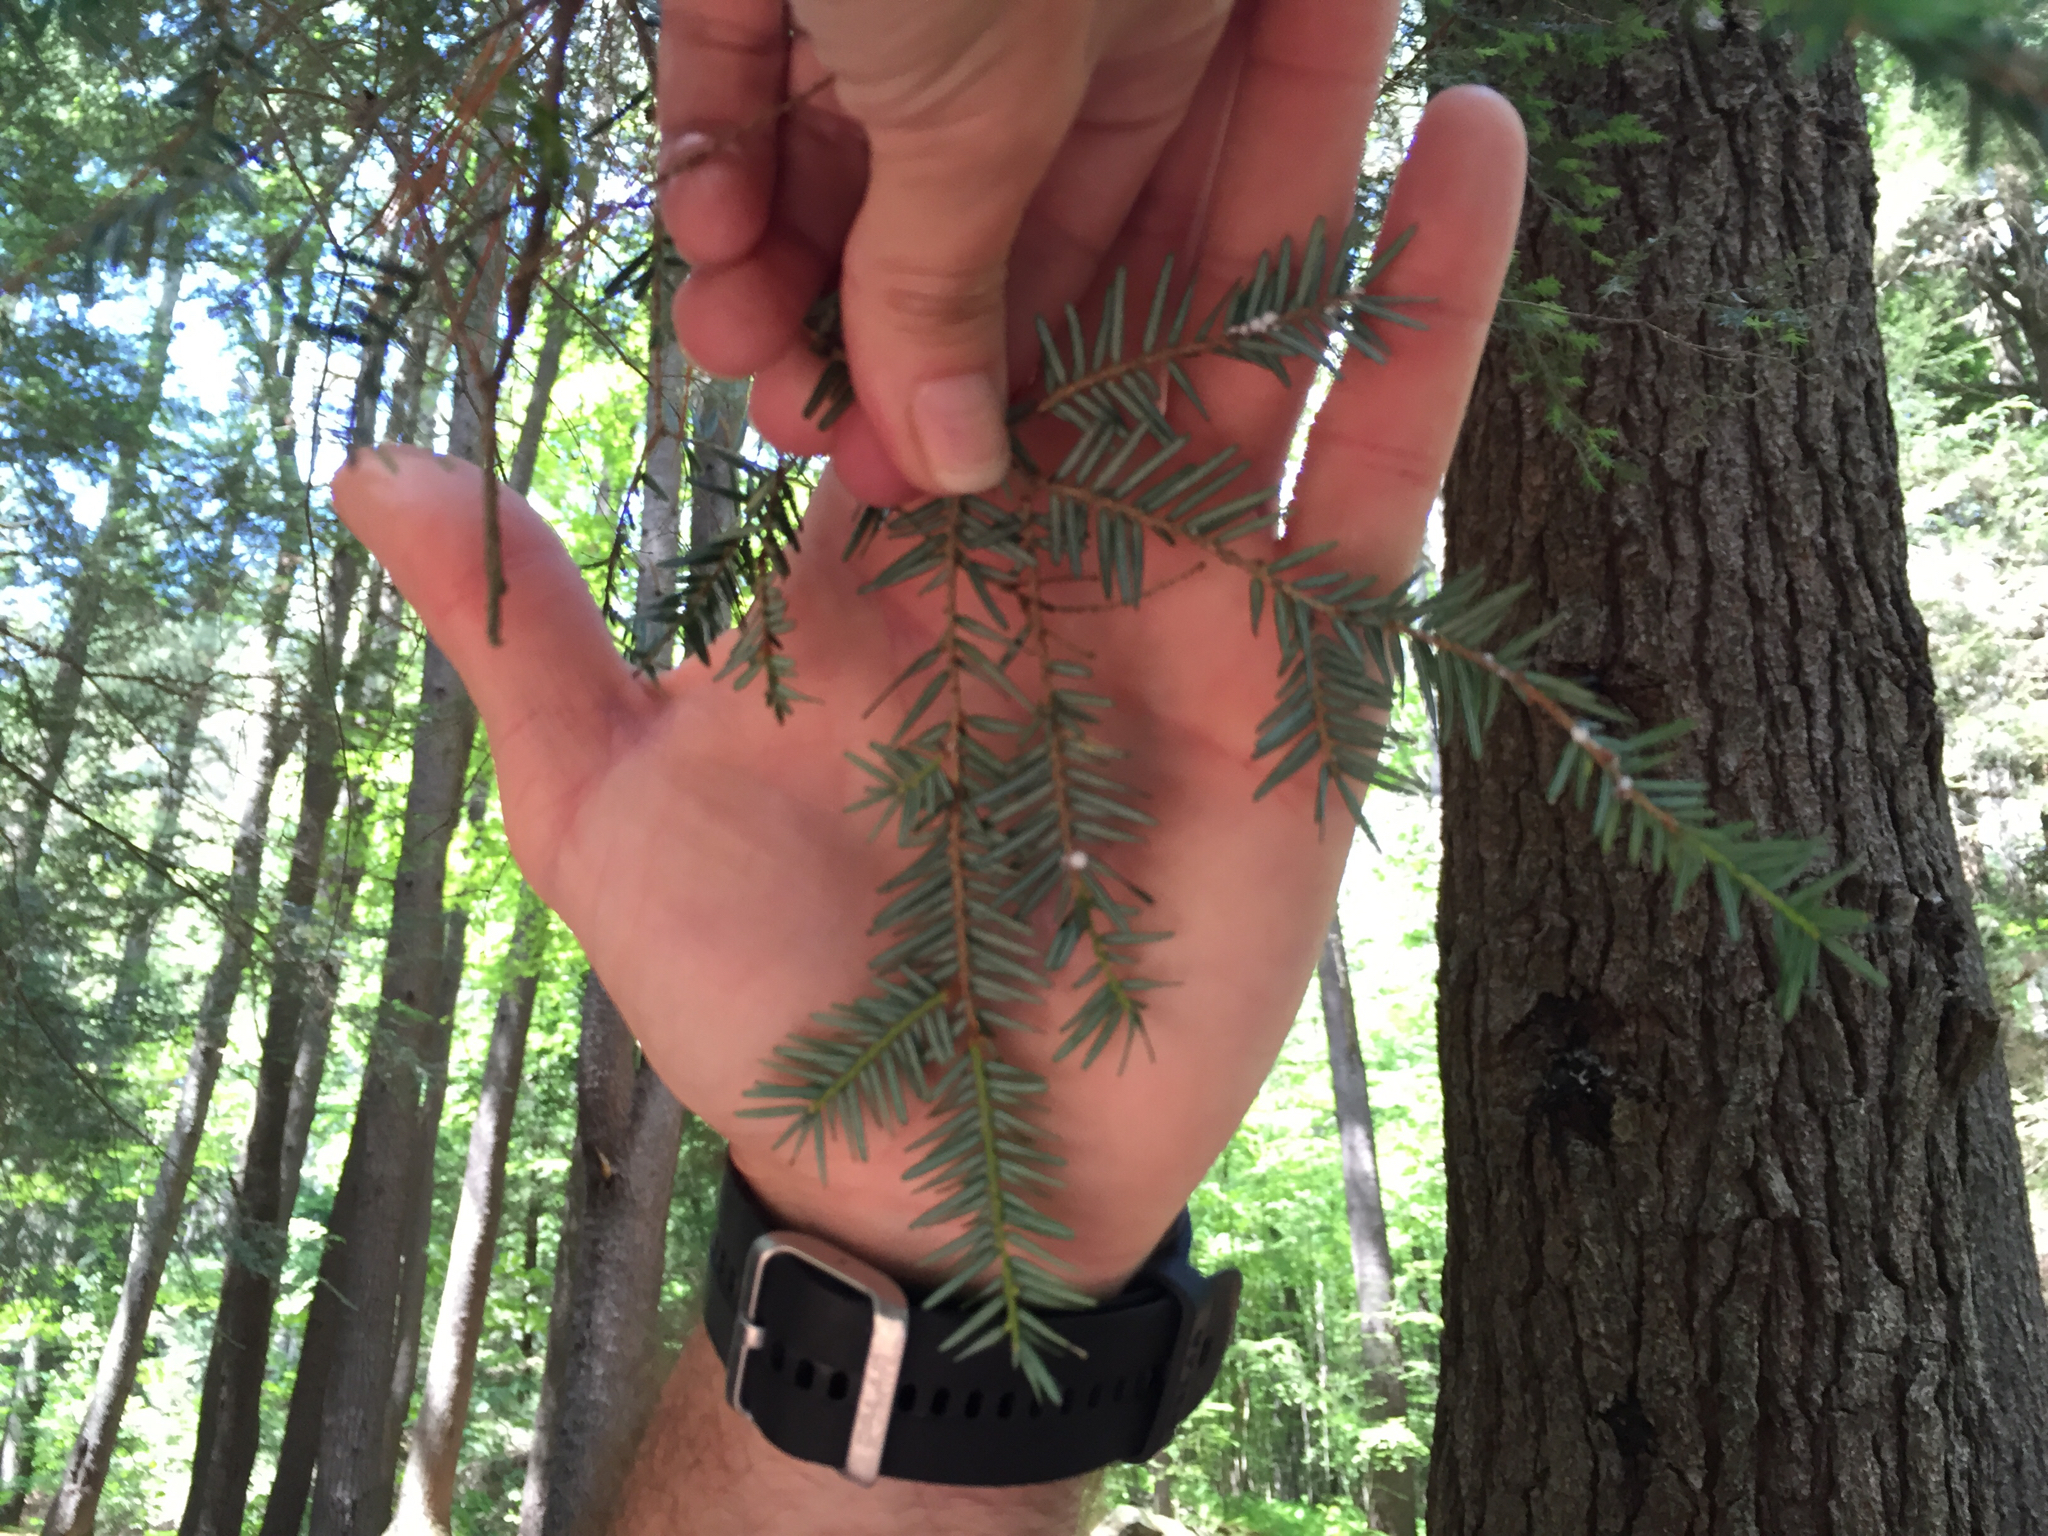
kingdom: Plantae
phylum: Tracheophyta
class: Pinopsida
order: Pinales
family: Pinaceae
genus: Tsuga
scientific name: Tsuga canadensis
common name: Eastern hemlock
